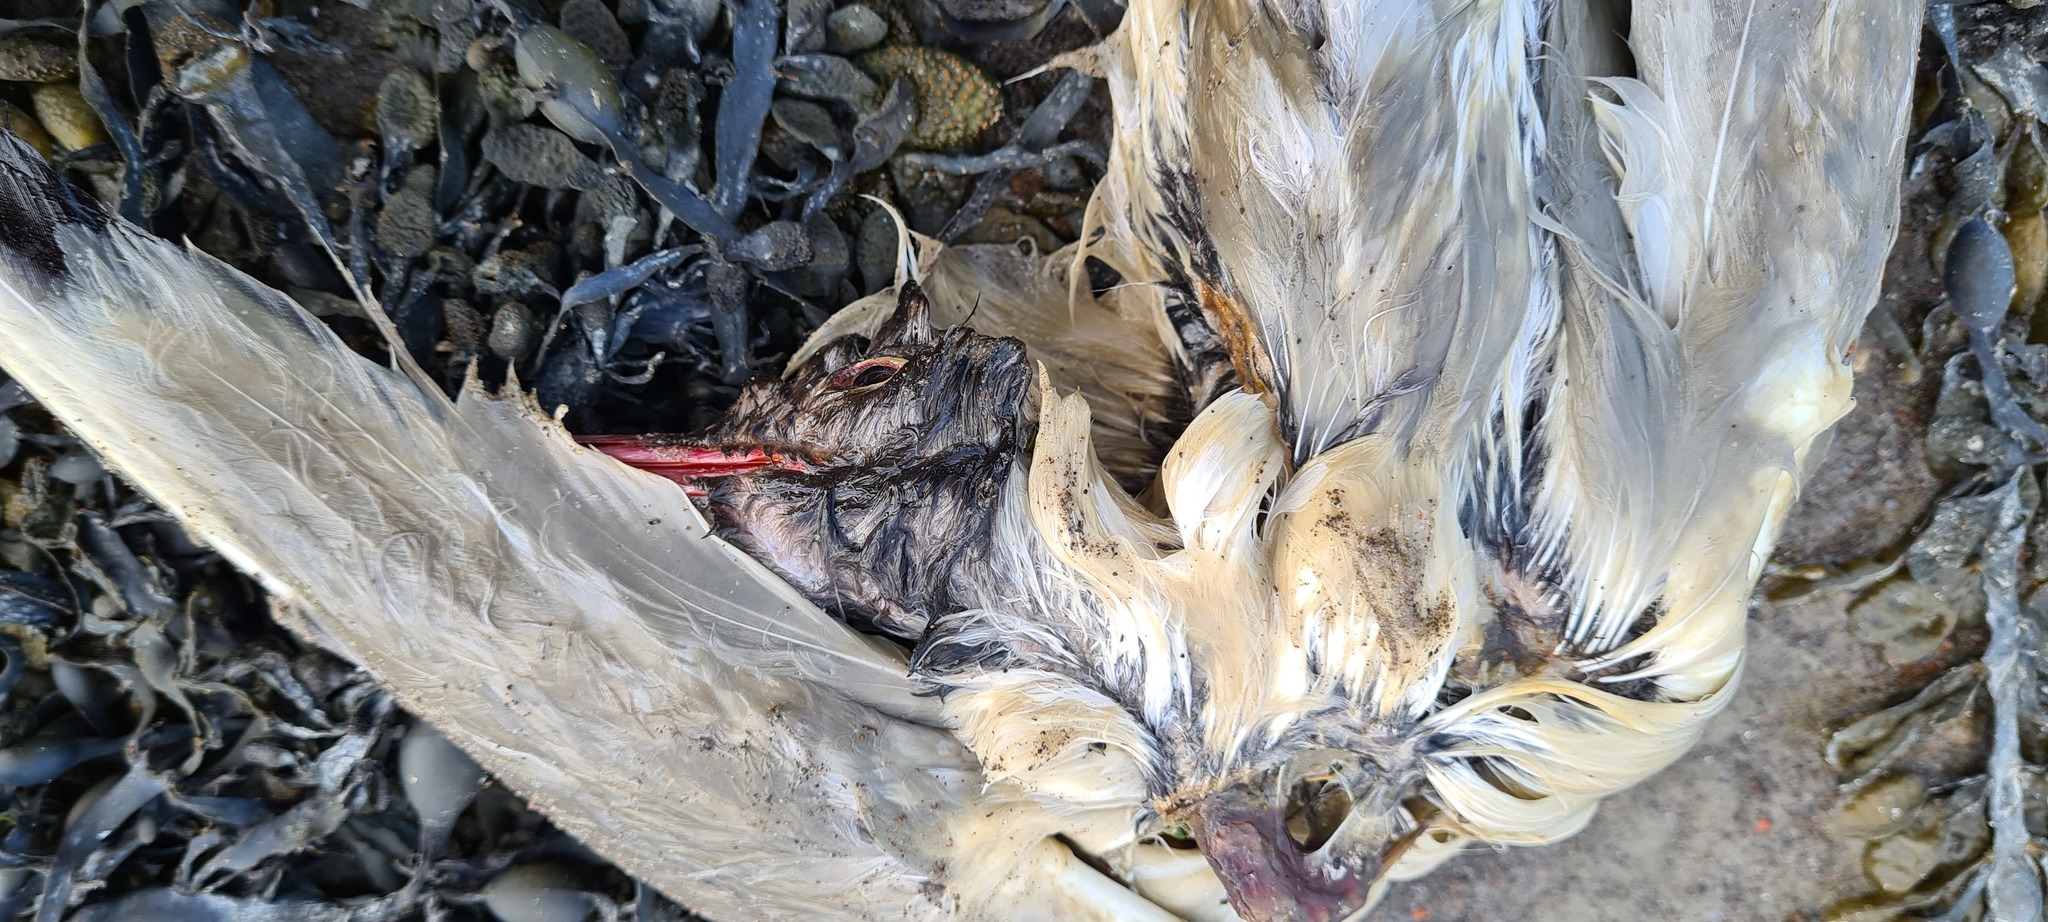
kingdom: Animalia
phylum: Chordata
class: Aves
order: Charadriiformes
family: Laridae
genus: Chroicocephalus
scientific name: Chroicocephalus ridibundus
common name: Black-headed gull
